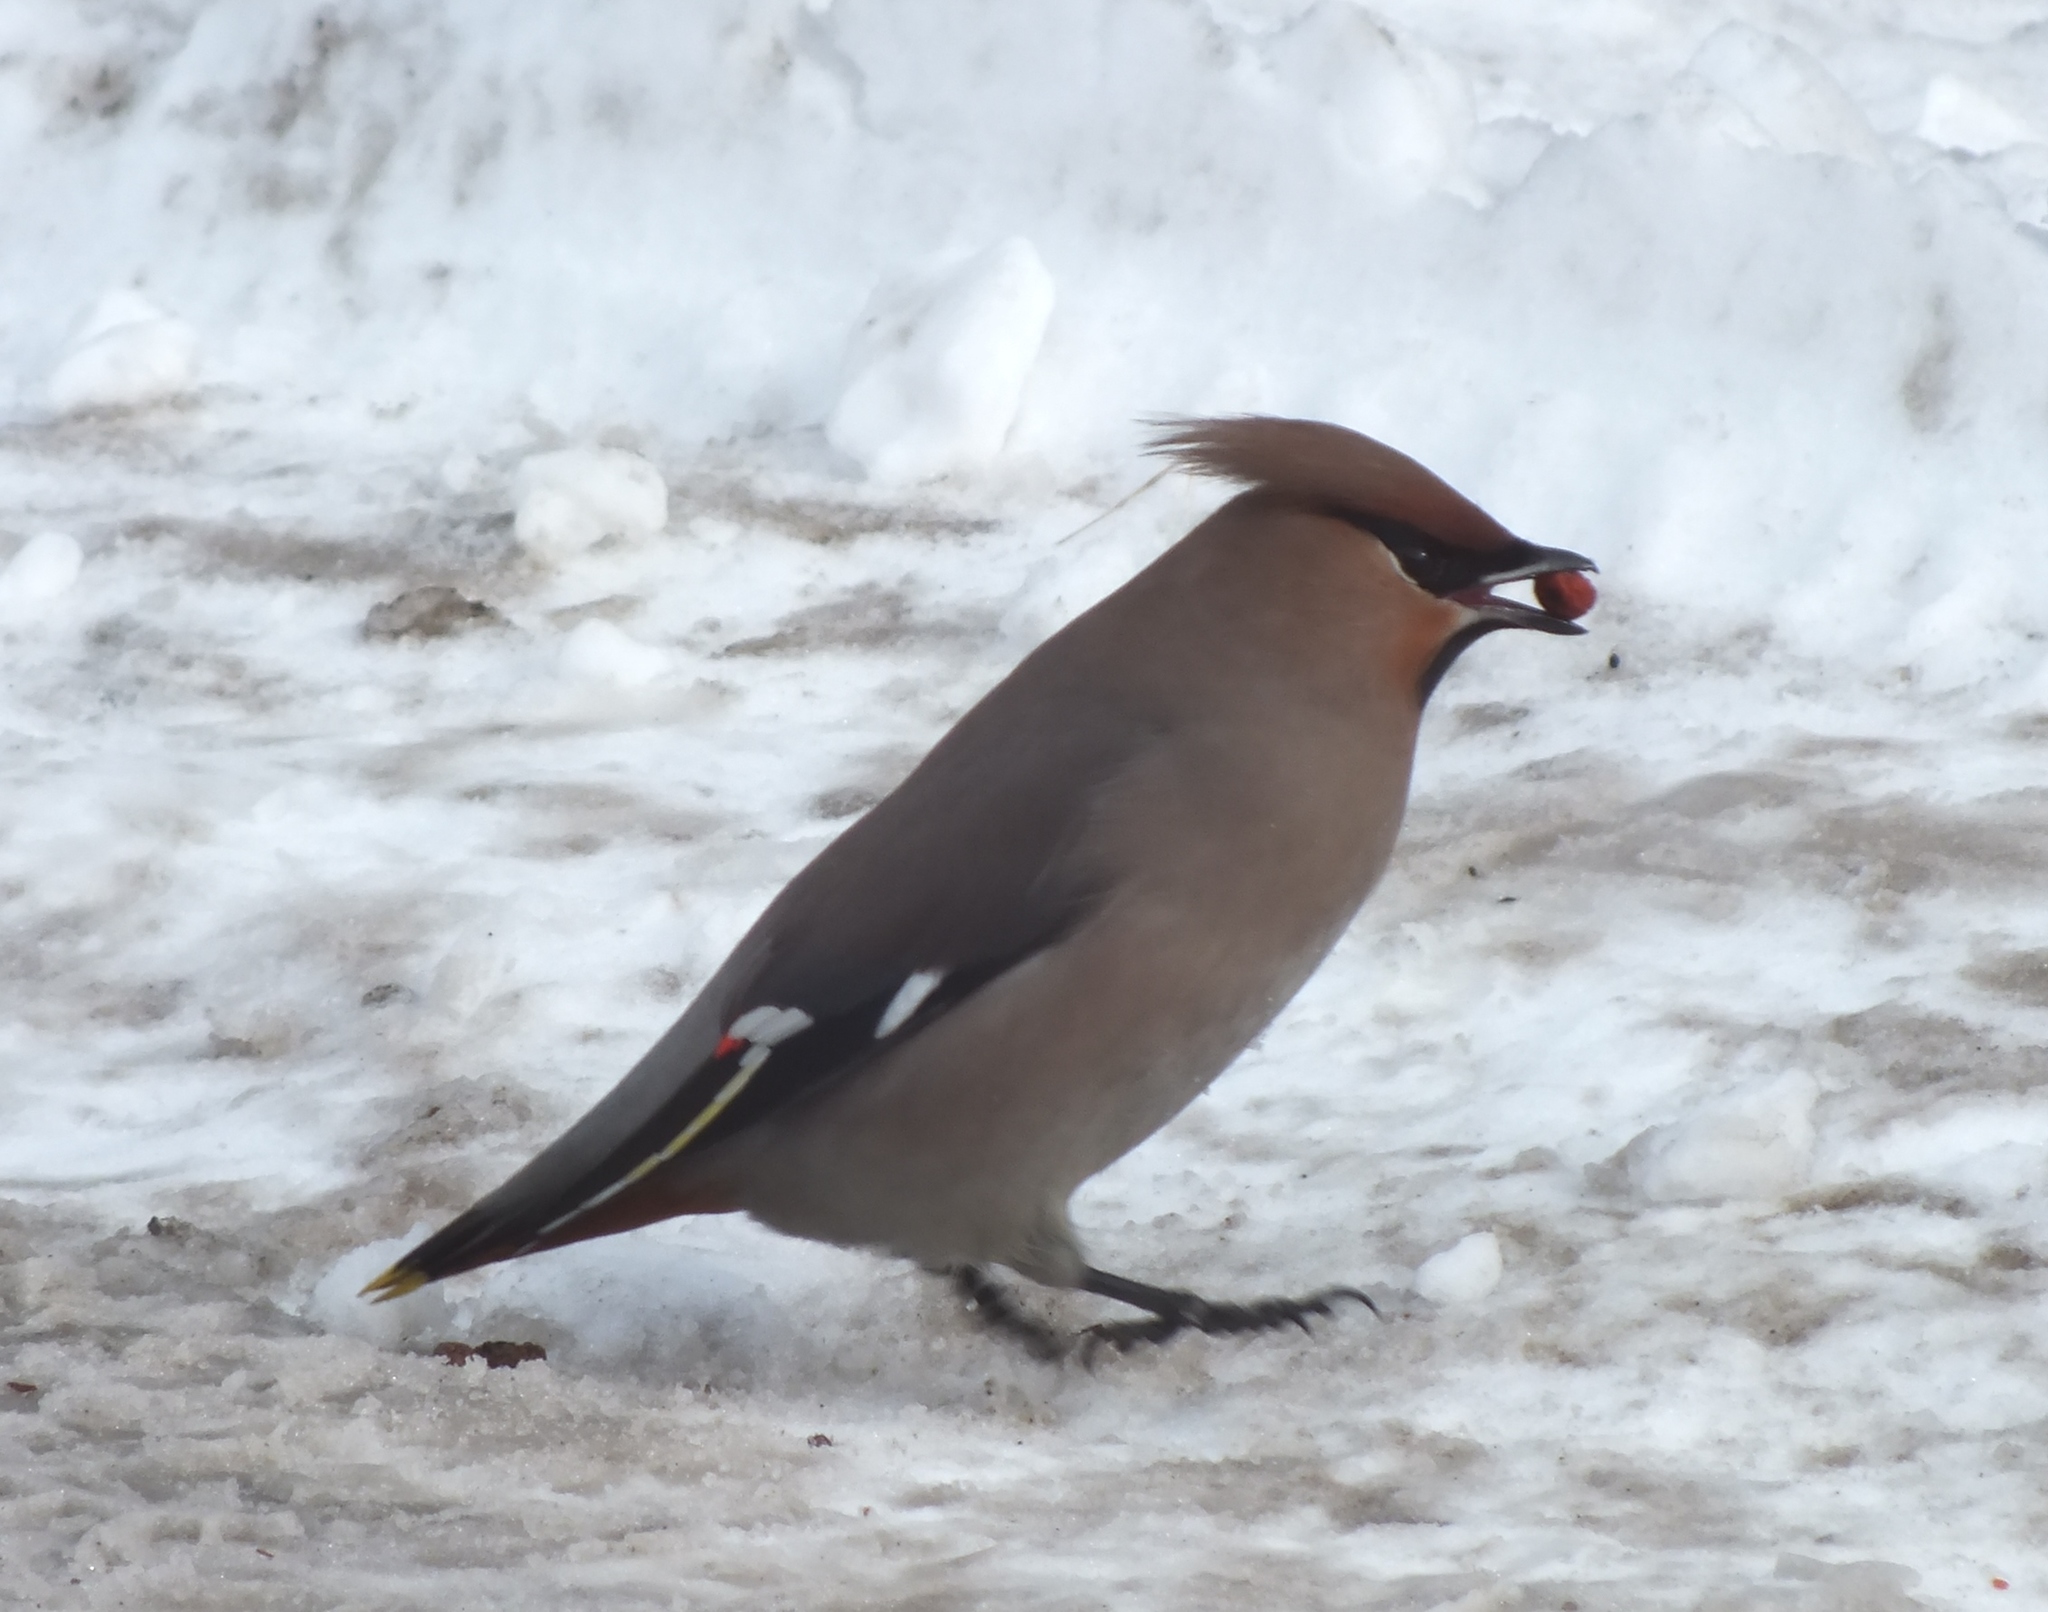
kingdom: Animalia
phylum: Chordata
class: Aves
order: Passeriformes
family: Bombycillidae
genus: Bombycilla
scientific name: Bombycilla garrulus
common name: Bohemian waxwing
